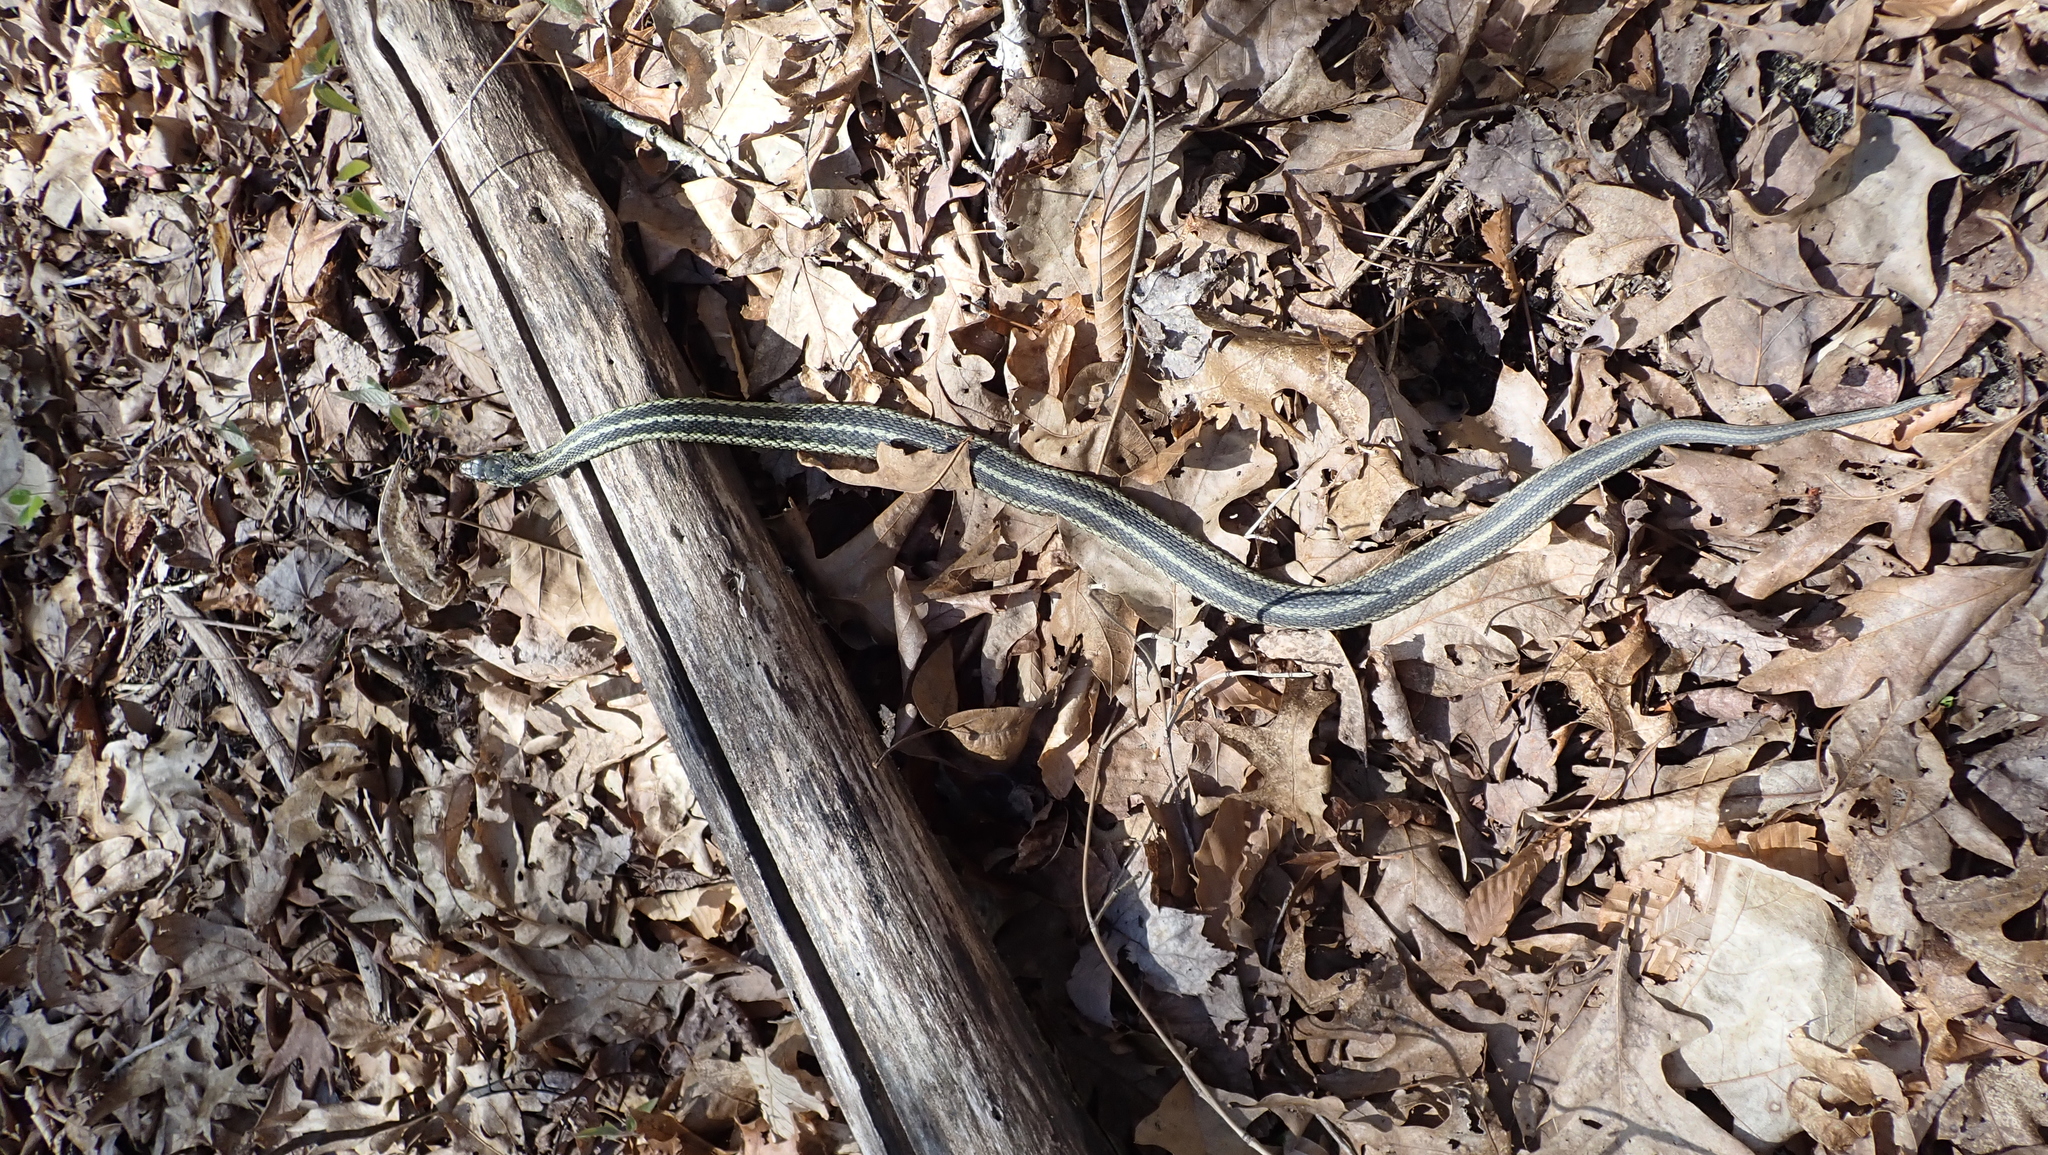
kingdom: Animalia
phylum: Chordata
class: Squamata
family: Colubridae
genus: Thamnophis
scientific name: Thamnophis sirtalis
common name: Common garter snake
